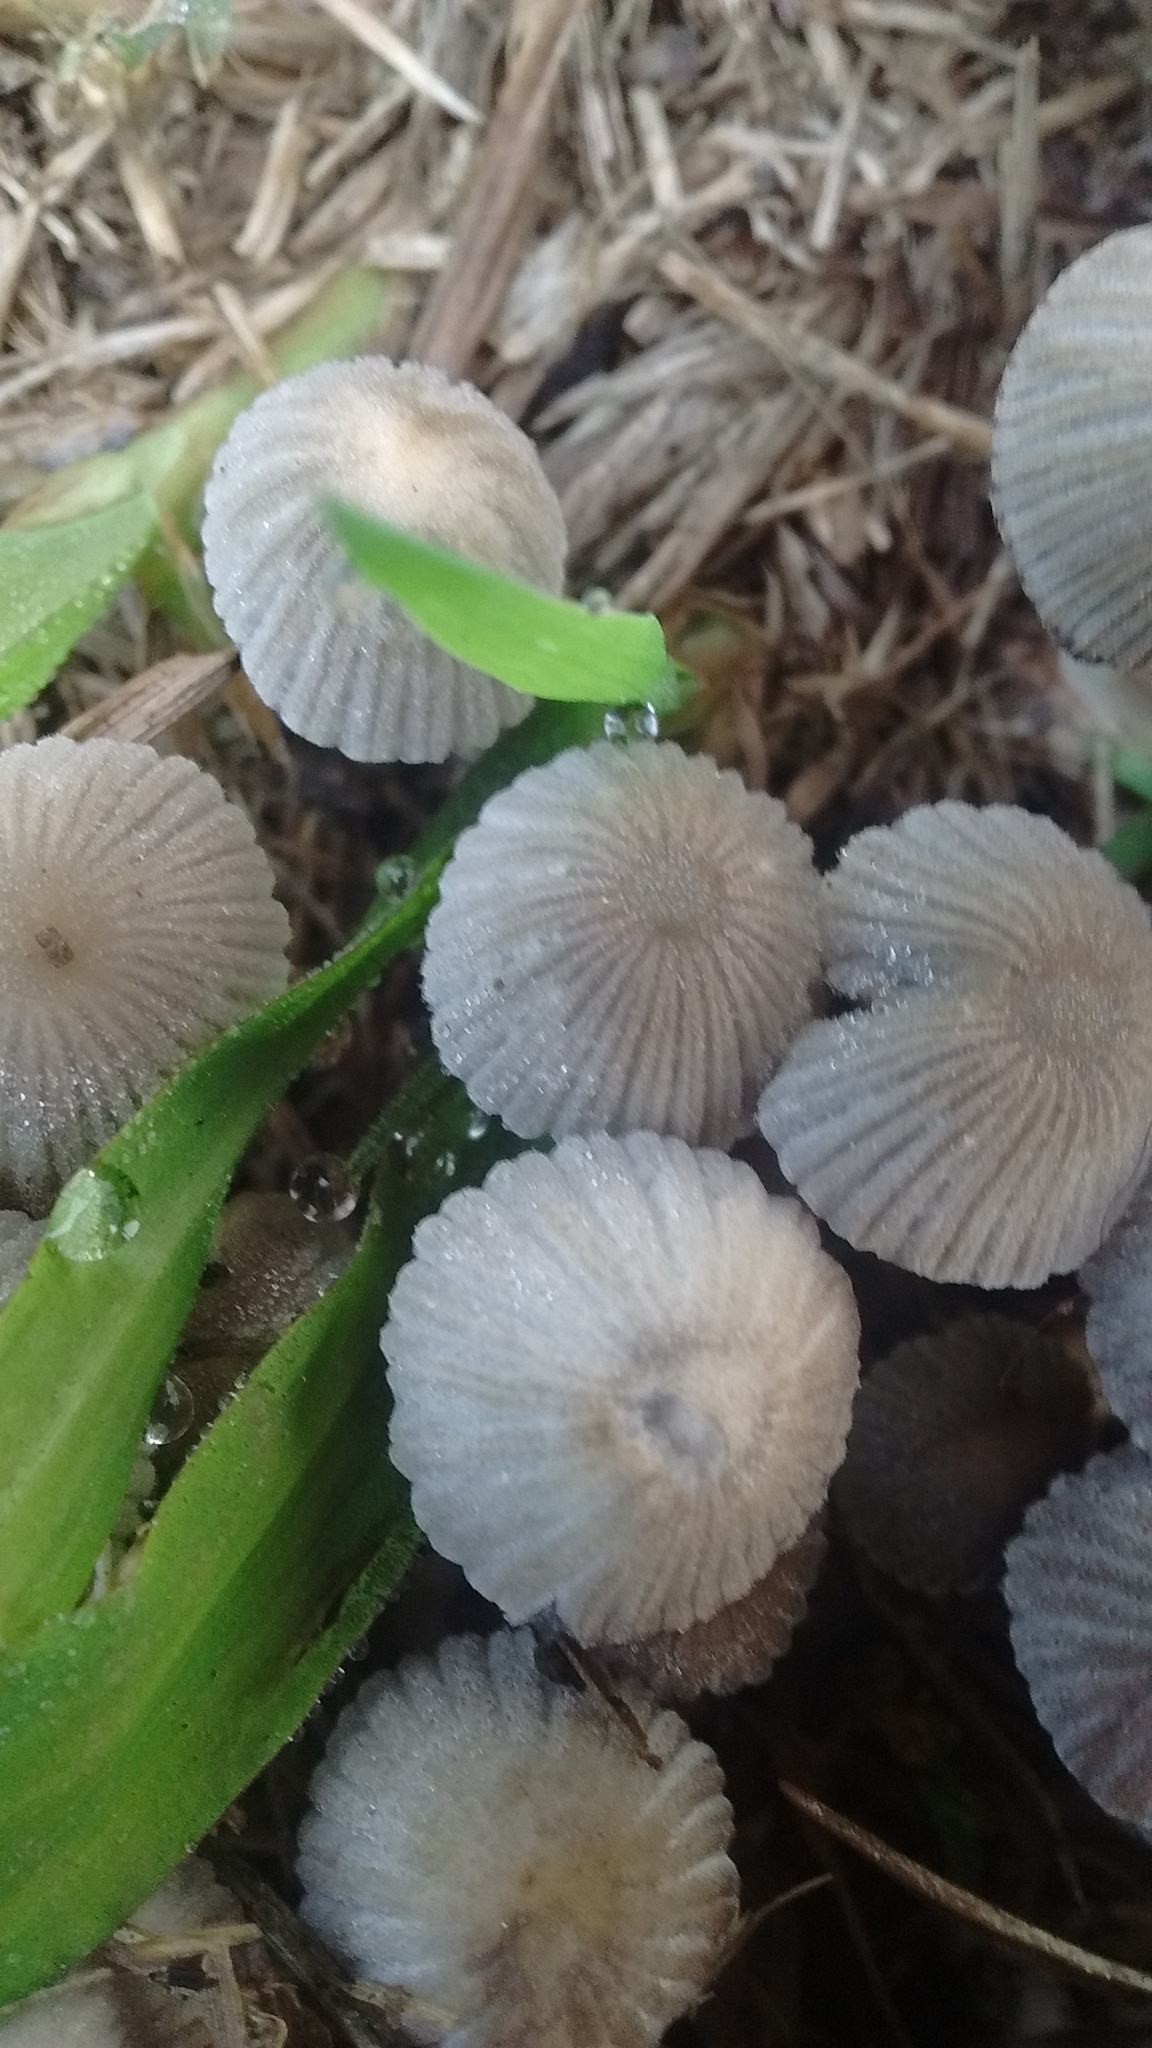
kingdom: Fungi
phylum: Basidiomycota
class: Agaricomycetes
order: Agaricales
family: Psathyrellaceae
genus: Coprinellus
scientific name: Coprinellus disseminatus
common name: Fairies' bonnets
